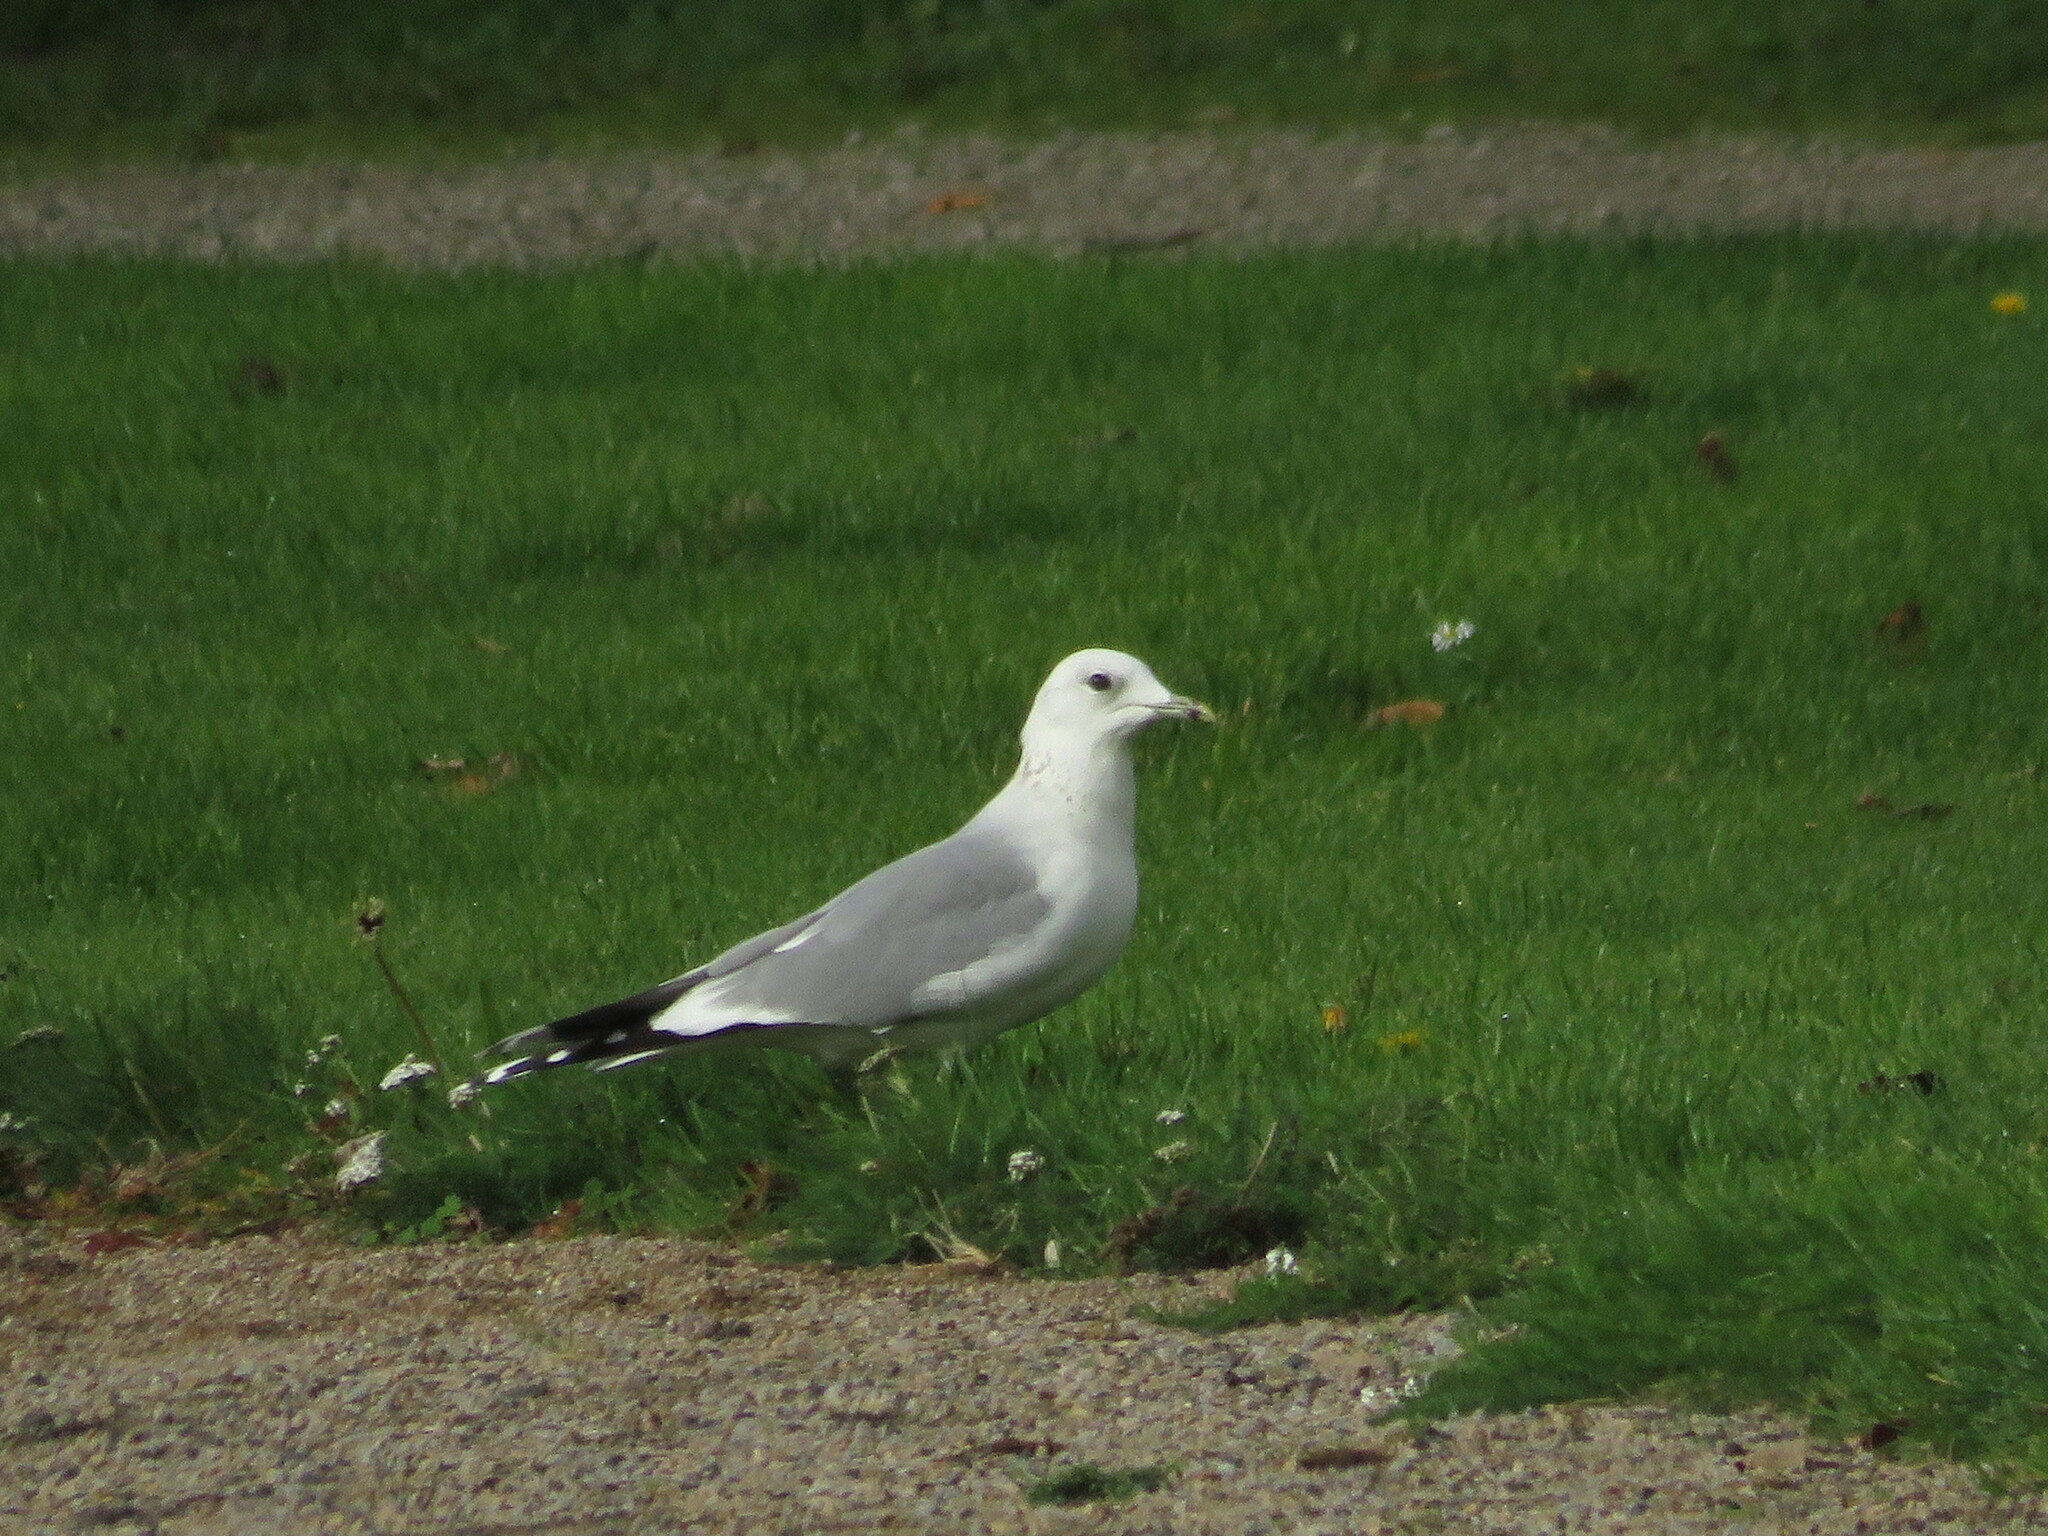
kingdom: Animalia
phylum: Chordata
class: Aves
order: Charadriiformes
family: Laridae
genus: Larus
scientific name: Larus canus
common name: Mew gull
